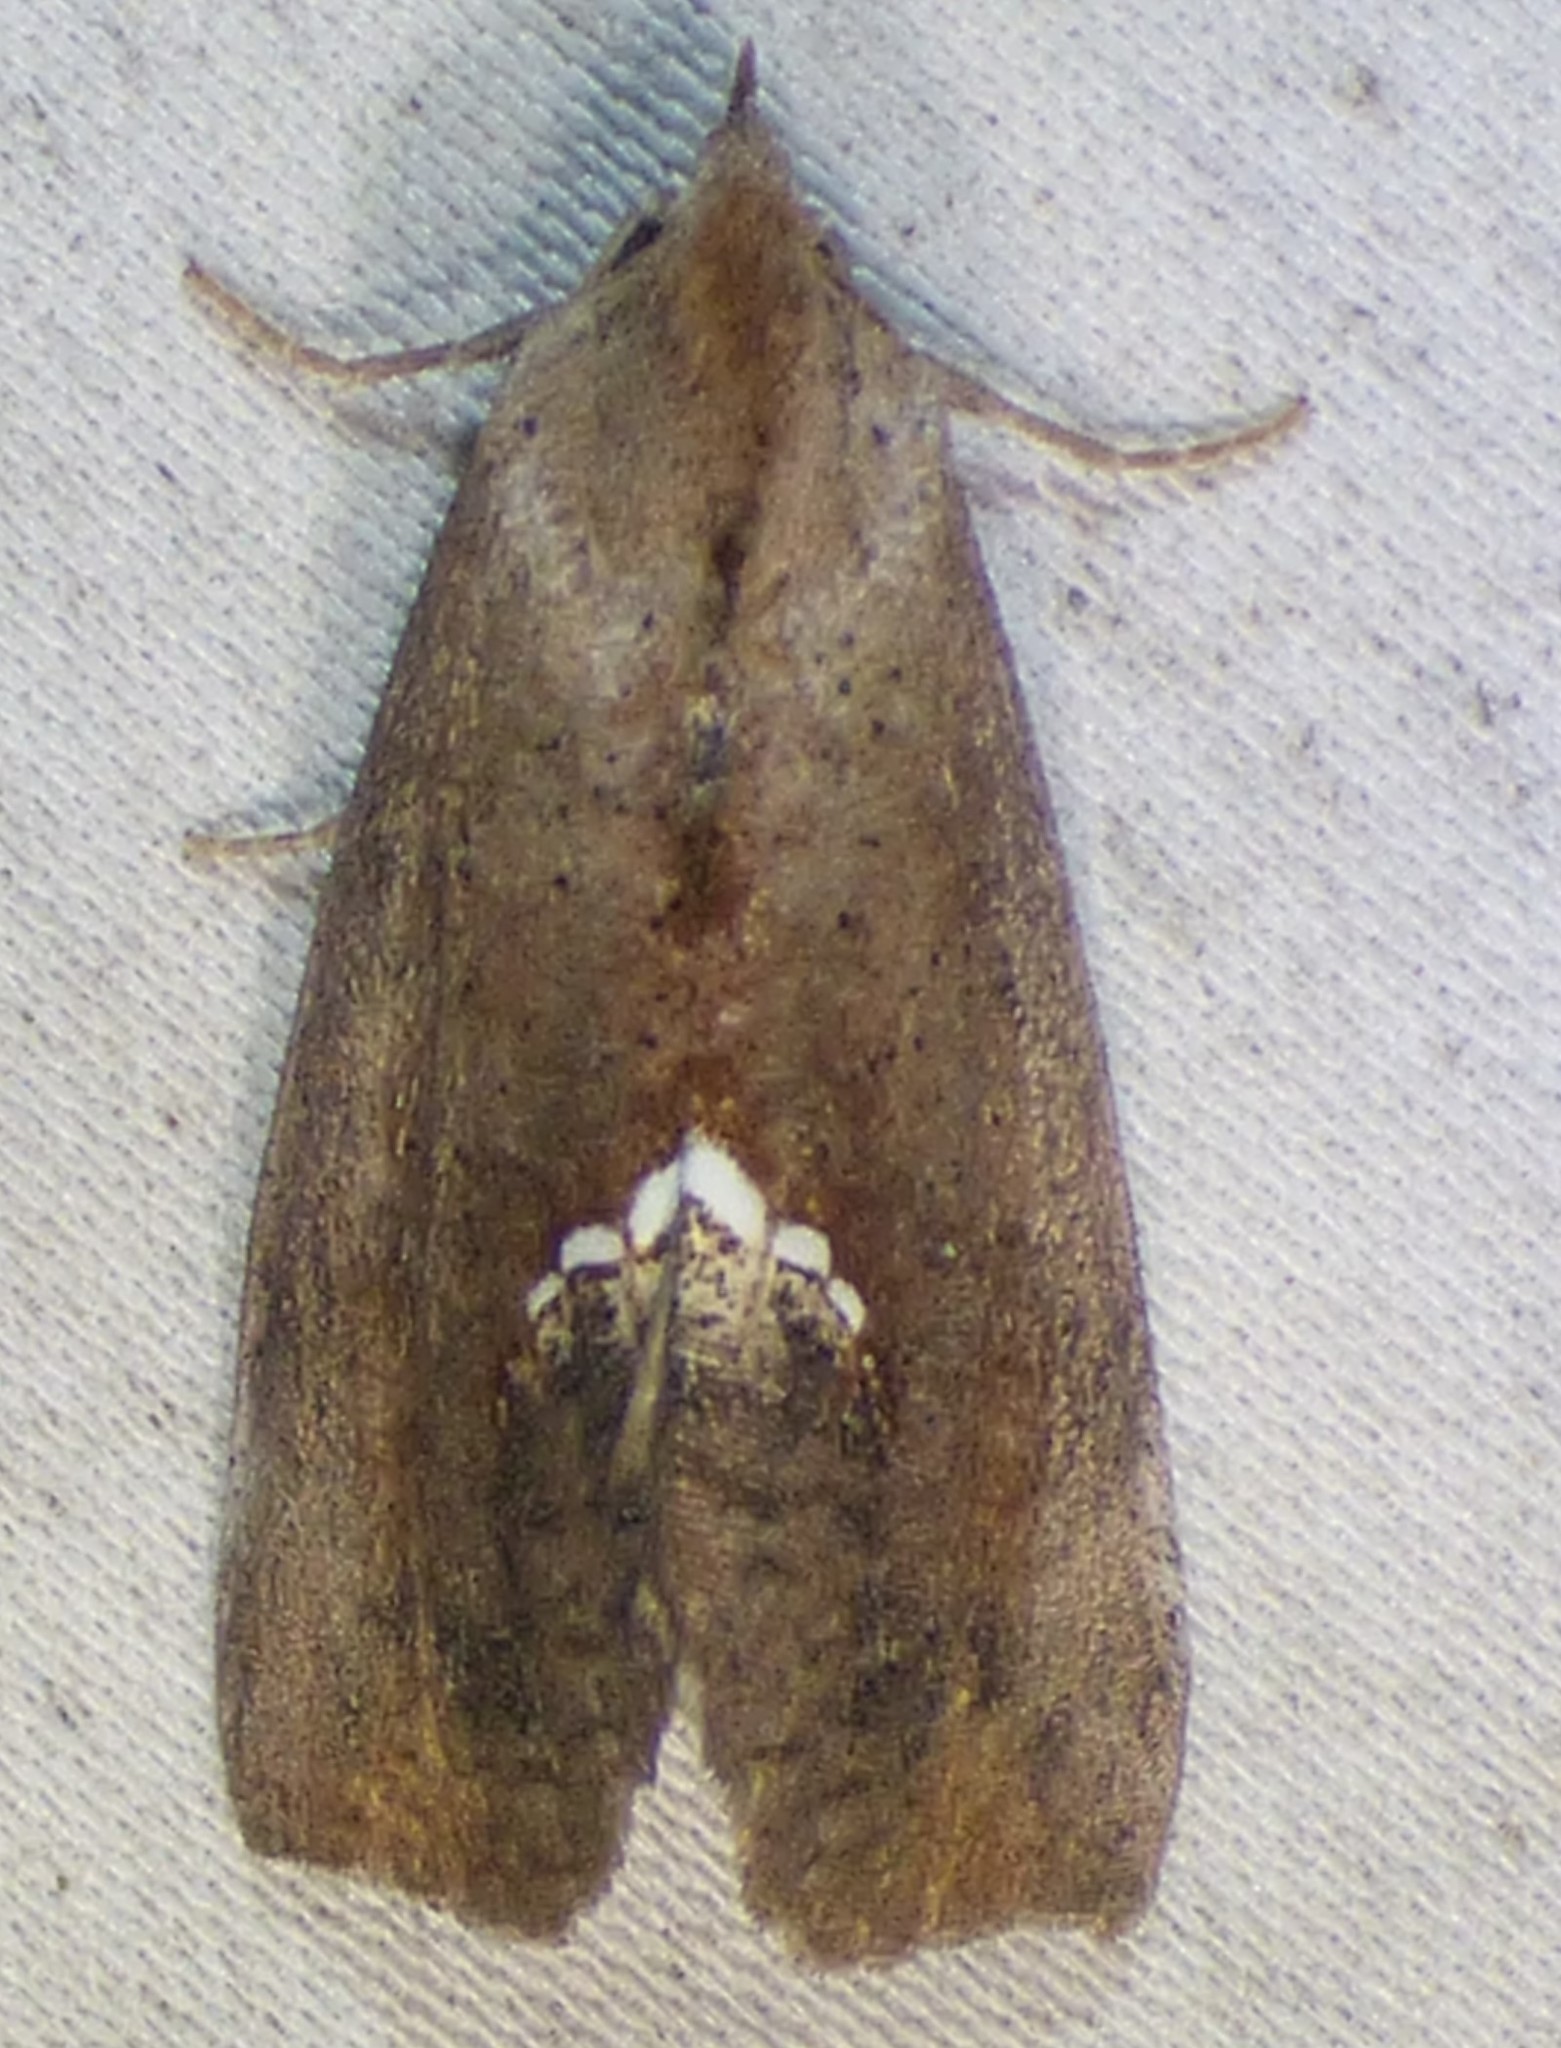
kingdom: Animalia
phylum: Arthropoda
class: Insecta
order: Lepidoptera
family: Erebidae
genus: Hypsoropha
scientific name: Hypsoropha hormos
